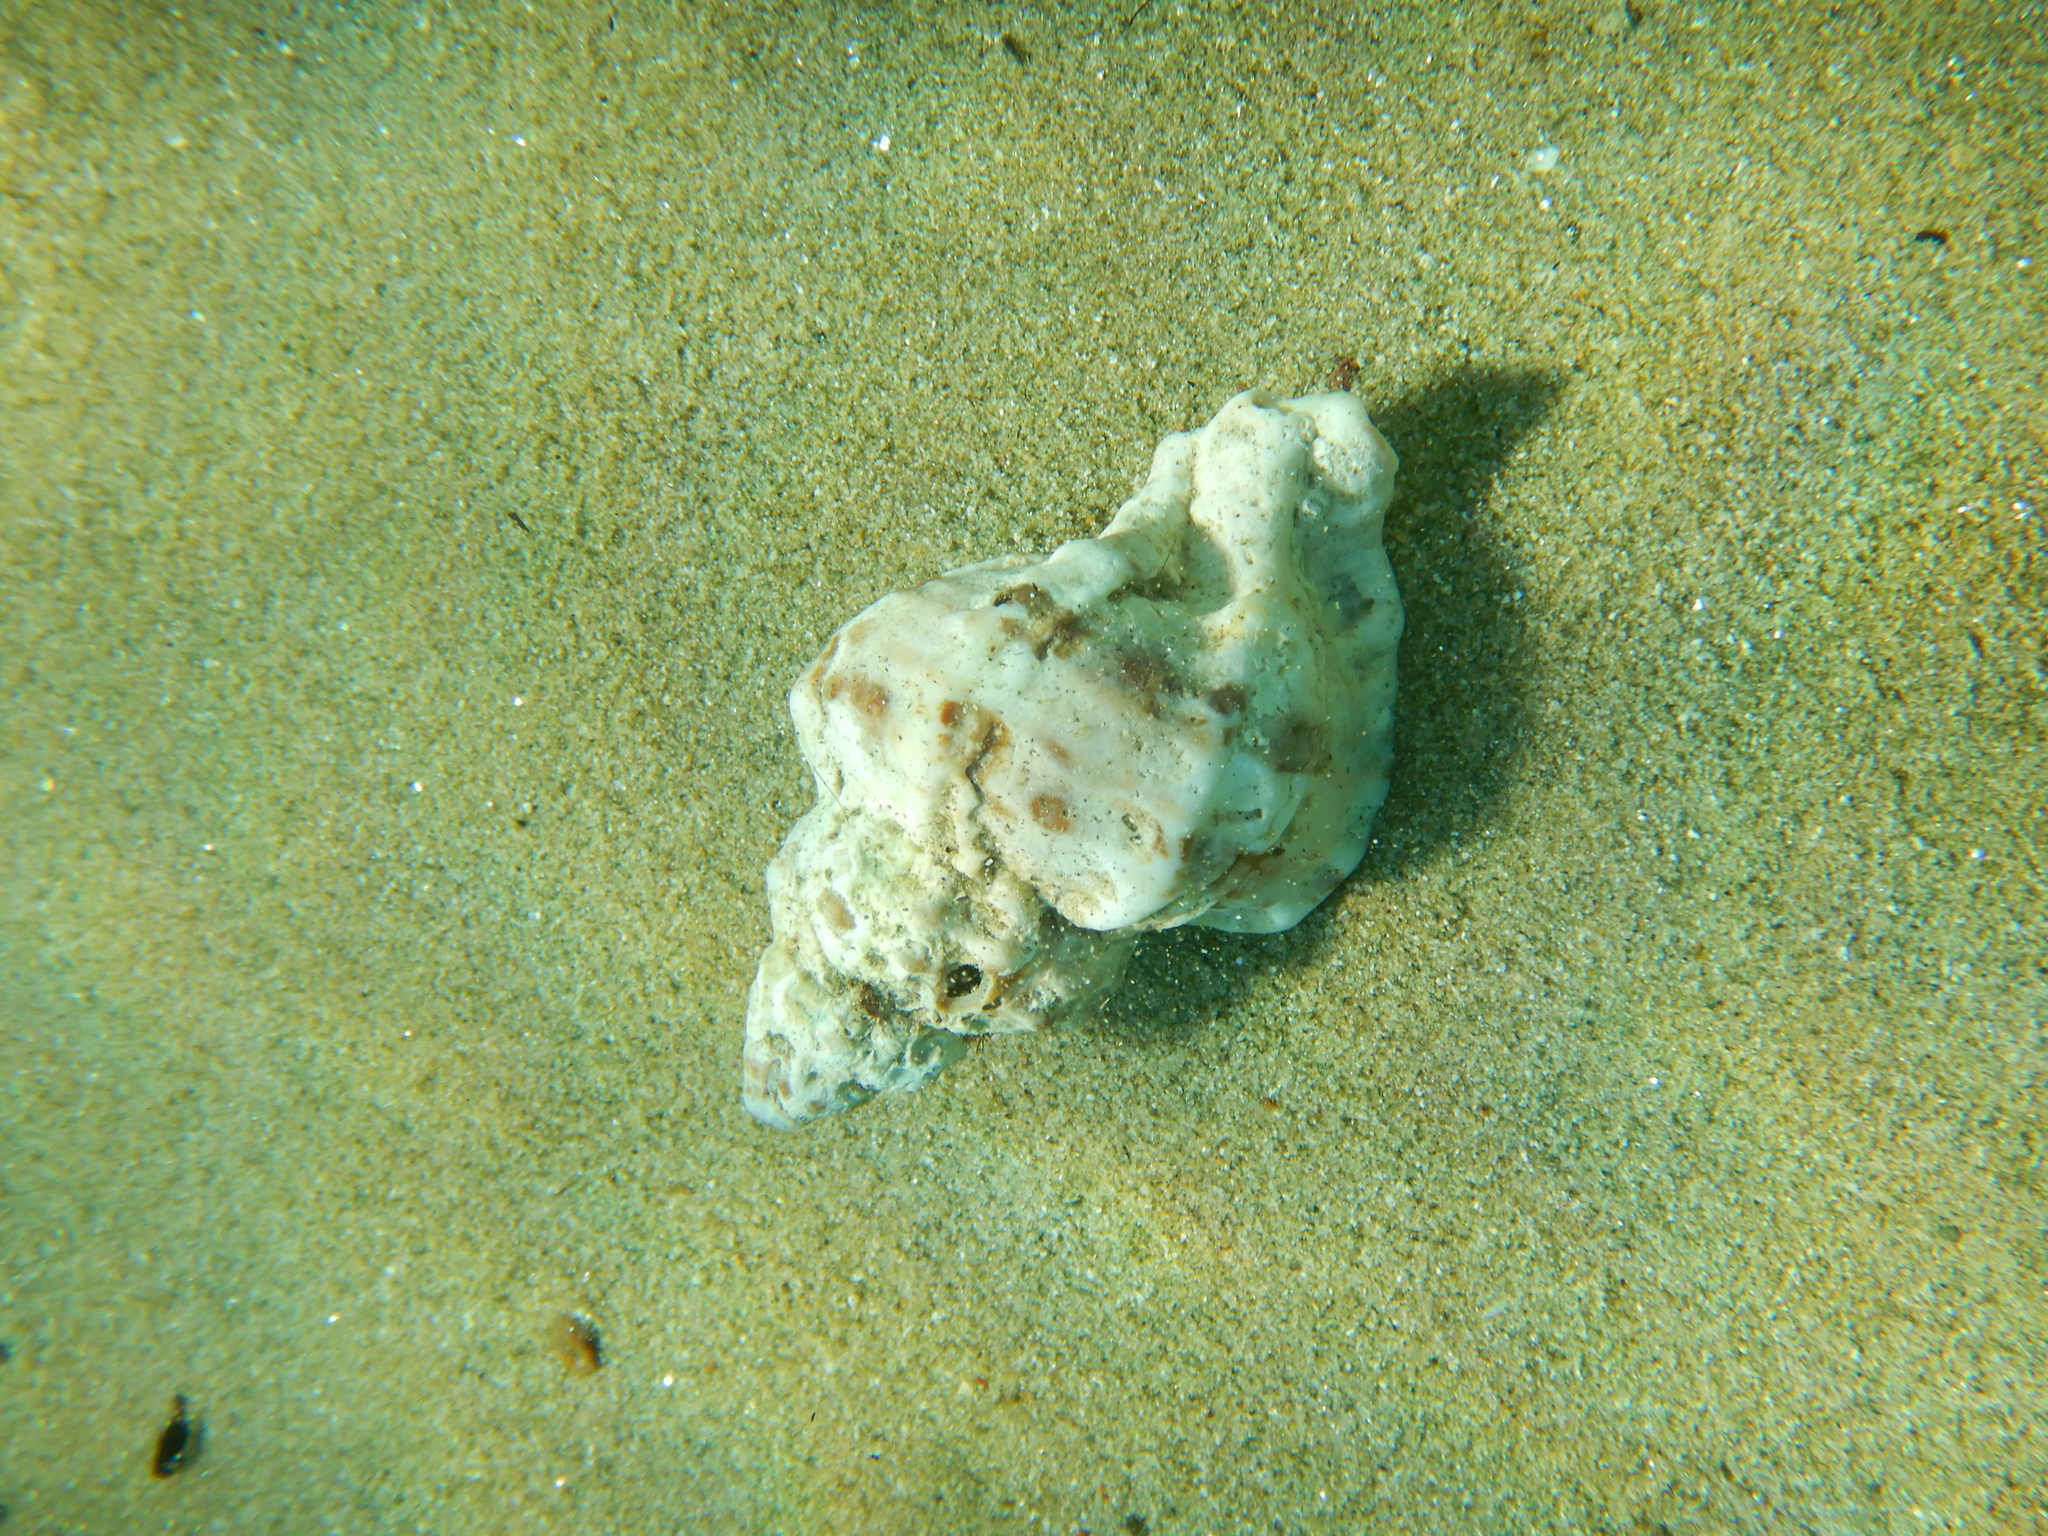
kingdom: Animalia
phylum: Mollusca
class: Gastropoda
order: Neogastropoda
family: Muricidae
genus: Hexaplex
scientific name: Hexaplex trunculus
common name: Banded dye-murex
